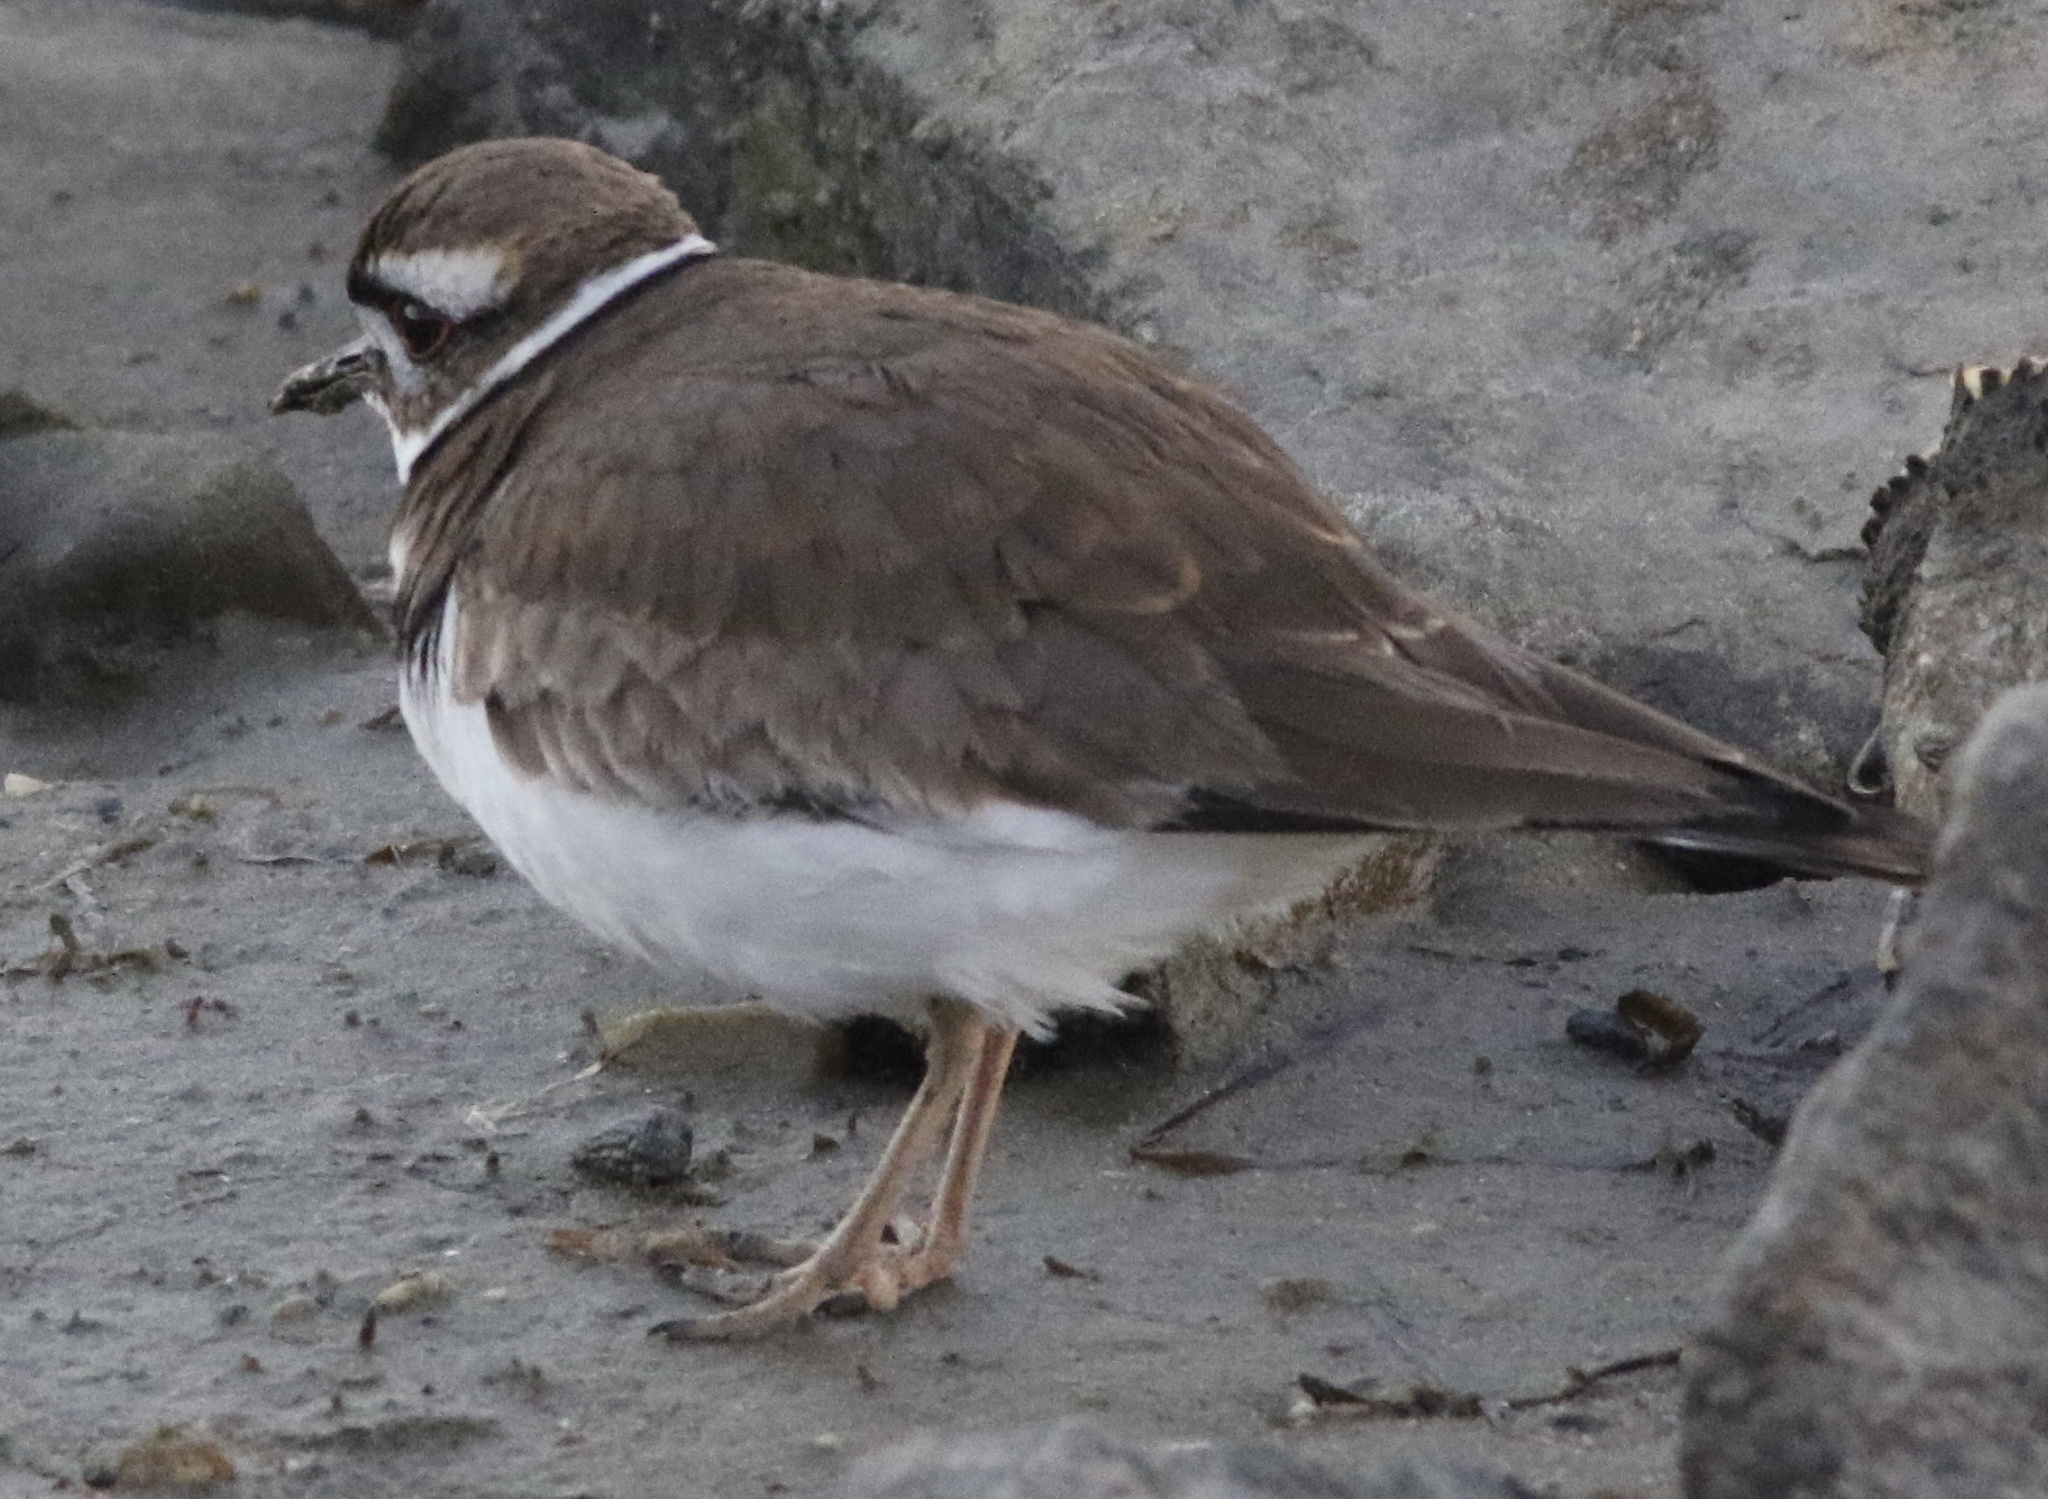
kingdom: Animalia
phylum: Chordata
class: Aves
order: Charadriiformes
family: Charadriidae
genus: Charadrius
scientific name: Charadrius vociferus
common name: Killdeer
